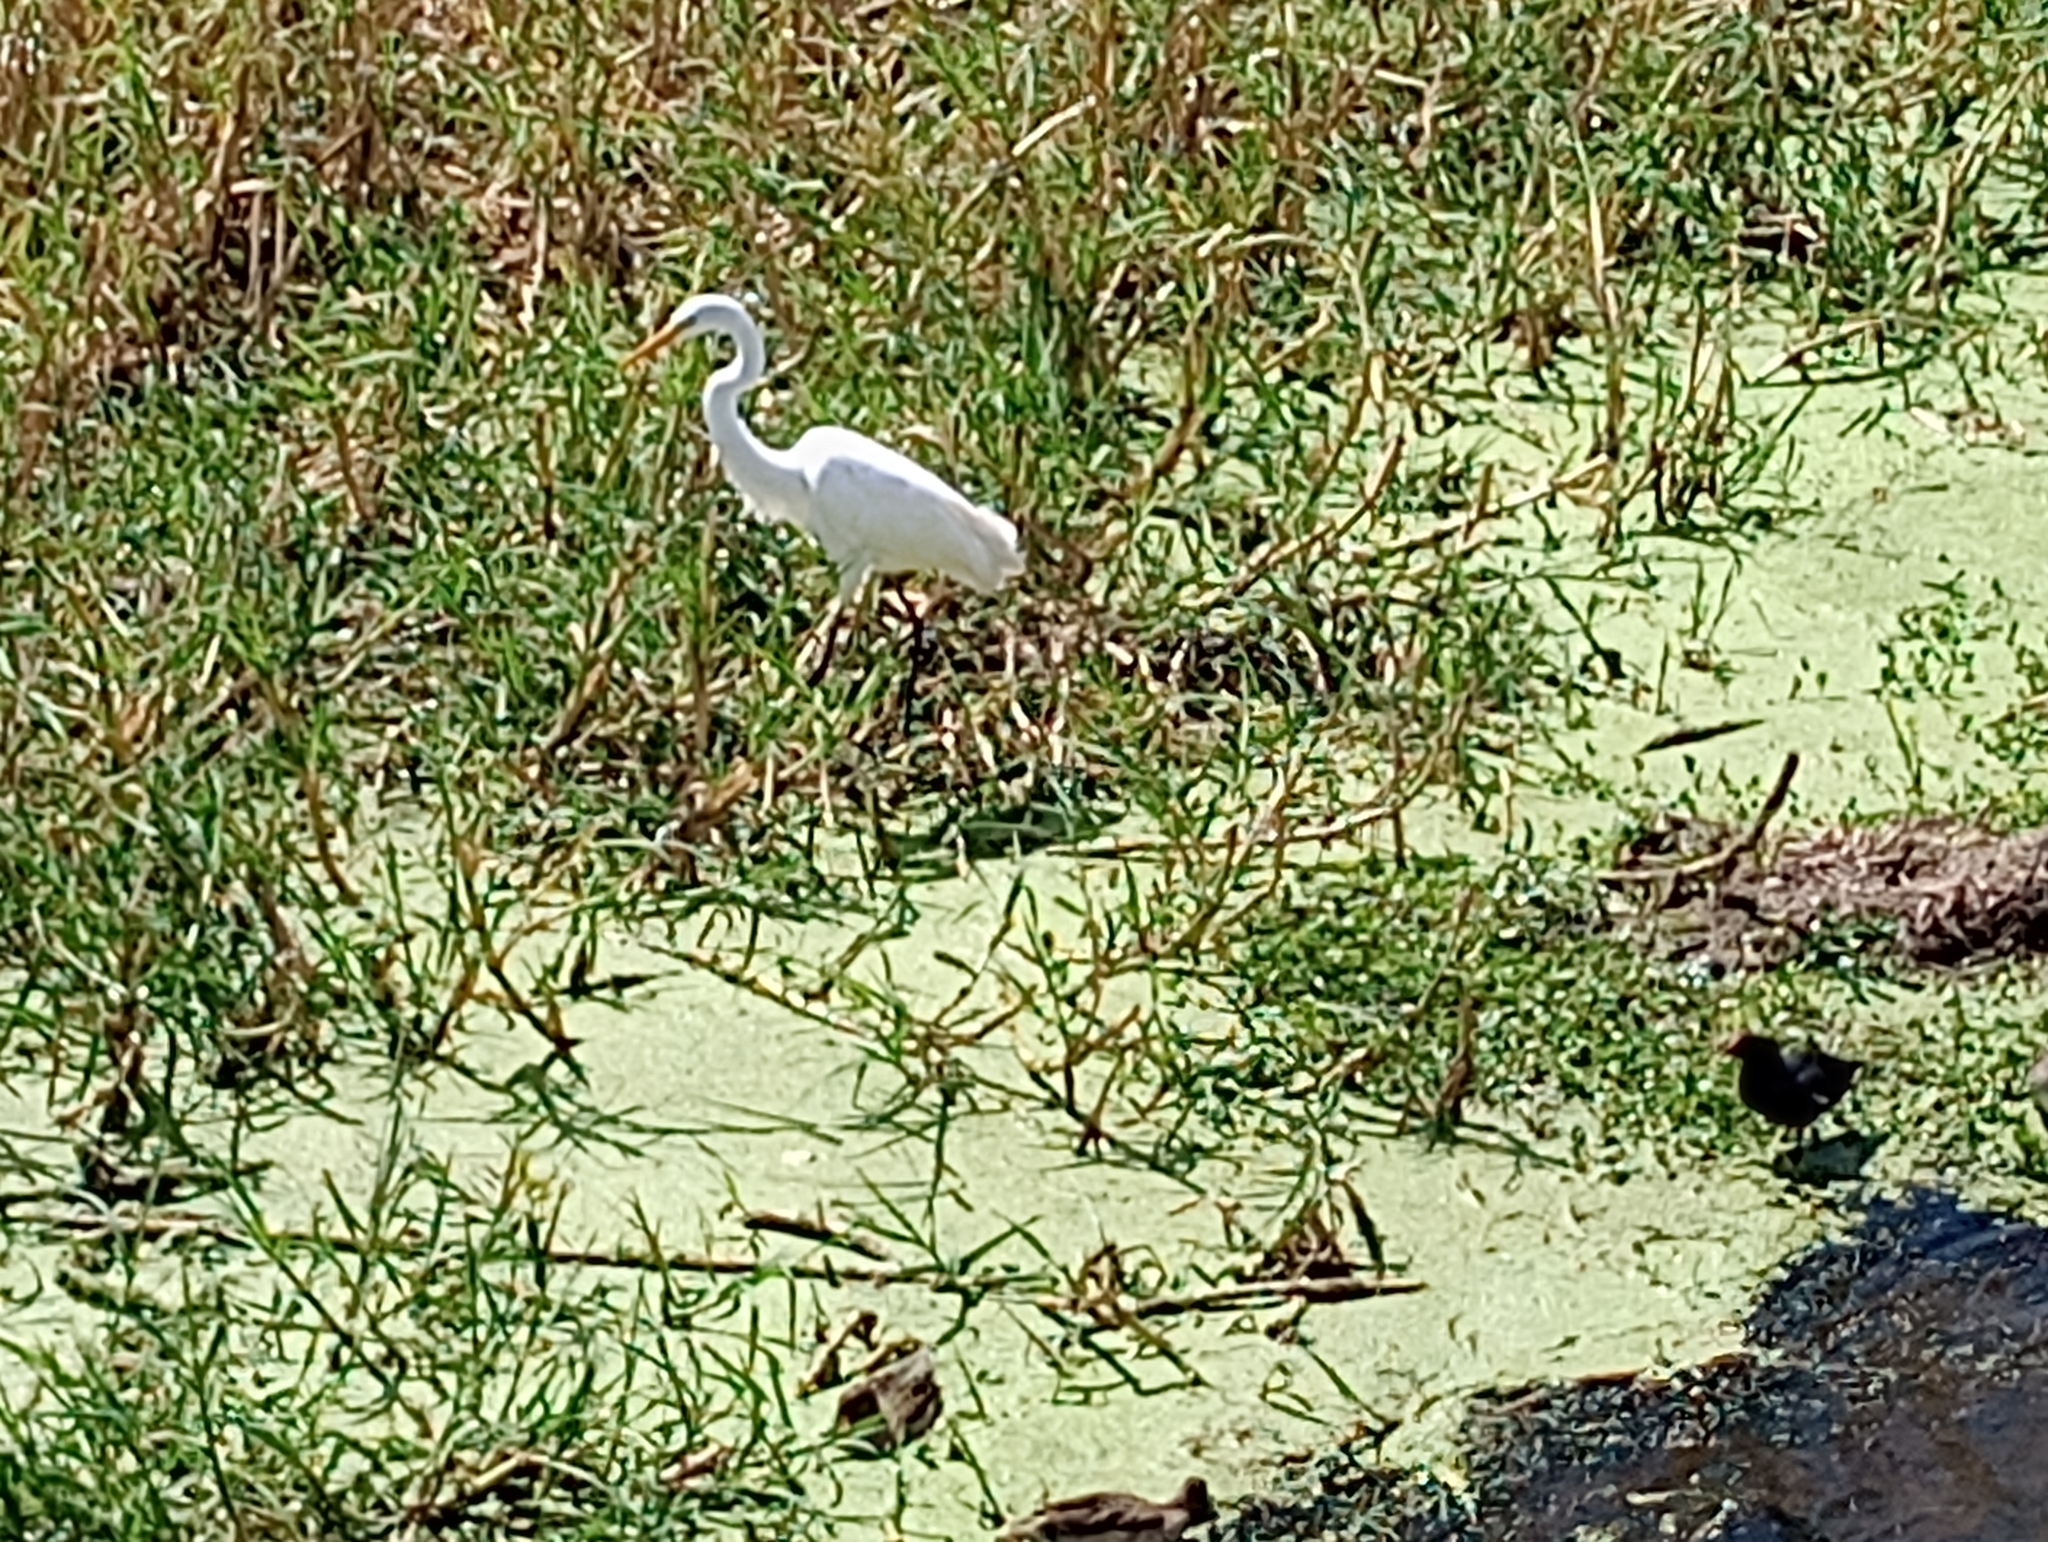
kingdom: Animalia
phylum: Chordata
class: Aves
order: Pelecaniformes
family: Ardeidae
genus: Ardea
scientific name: Ardea alba
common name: Great egret
